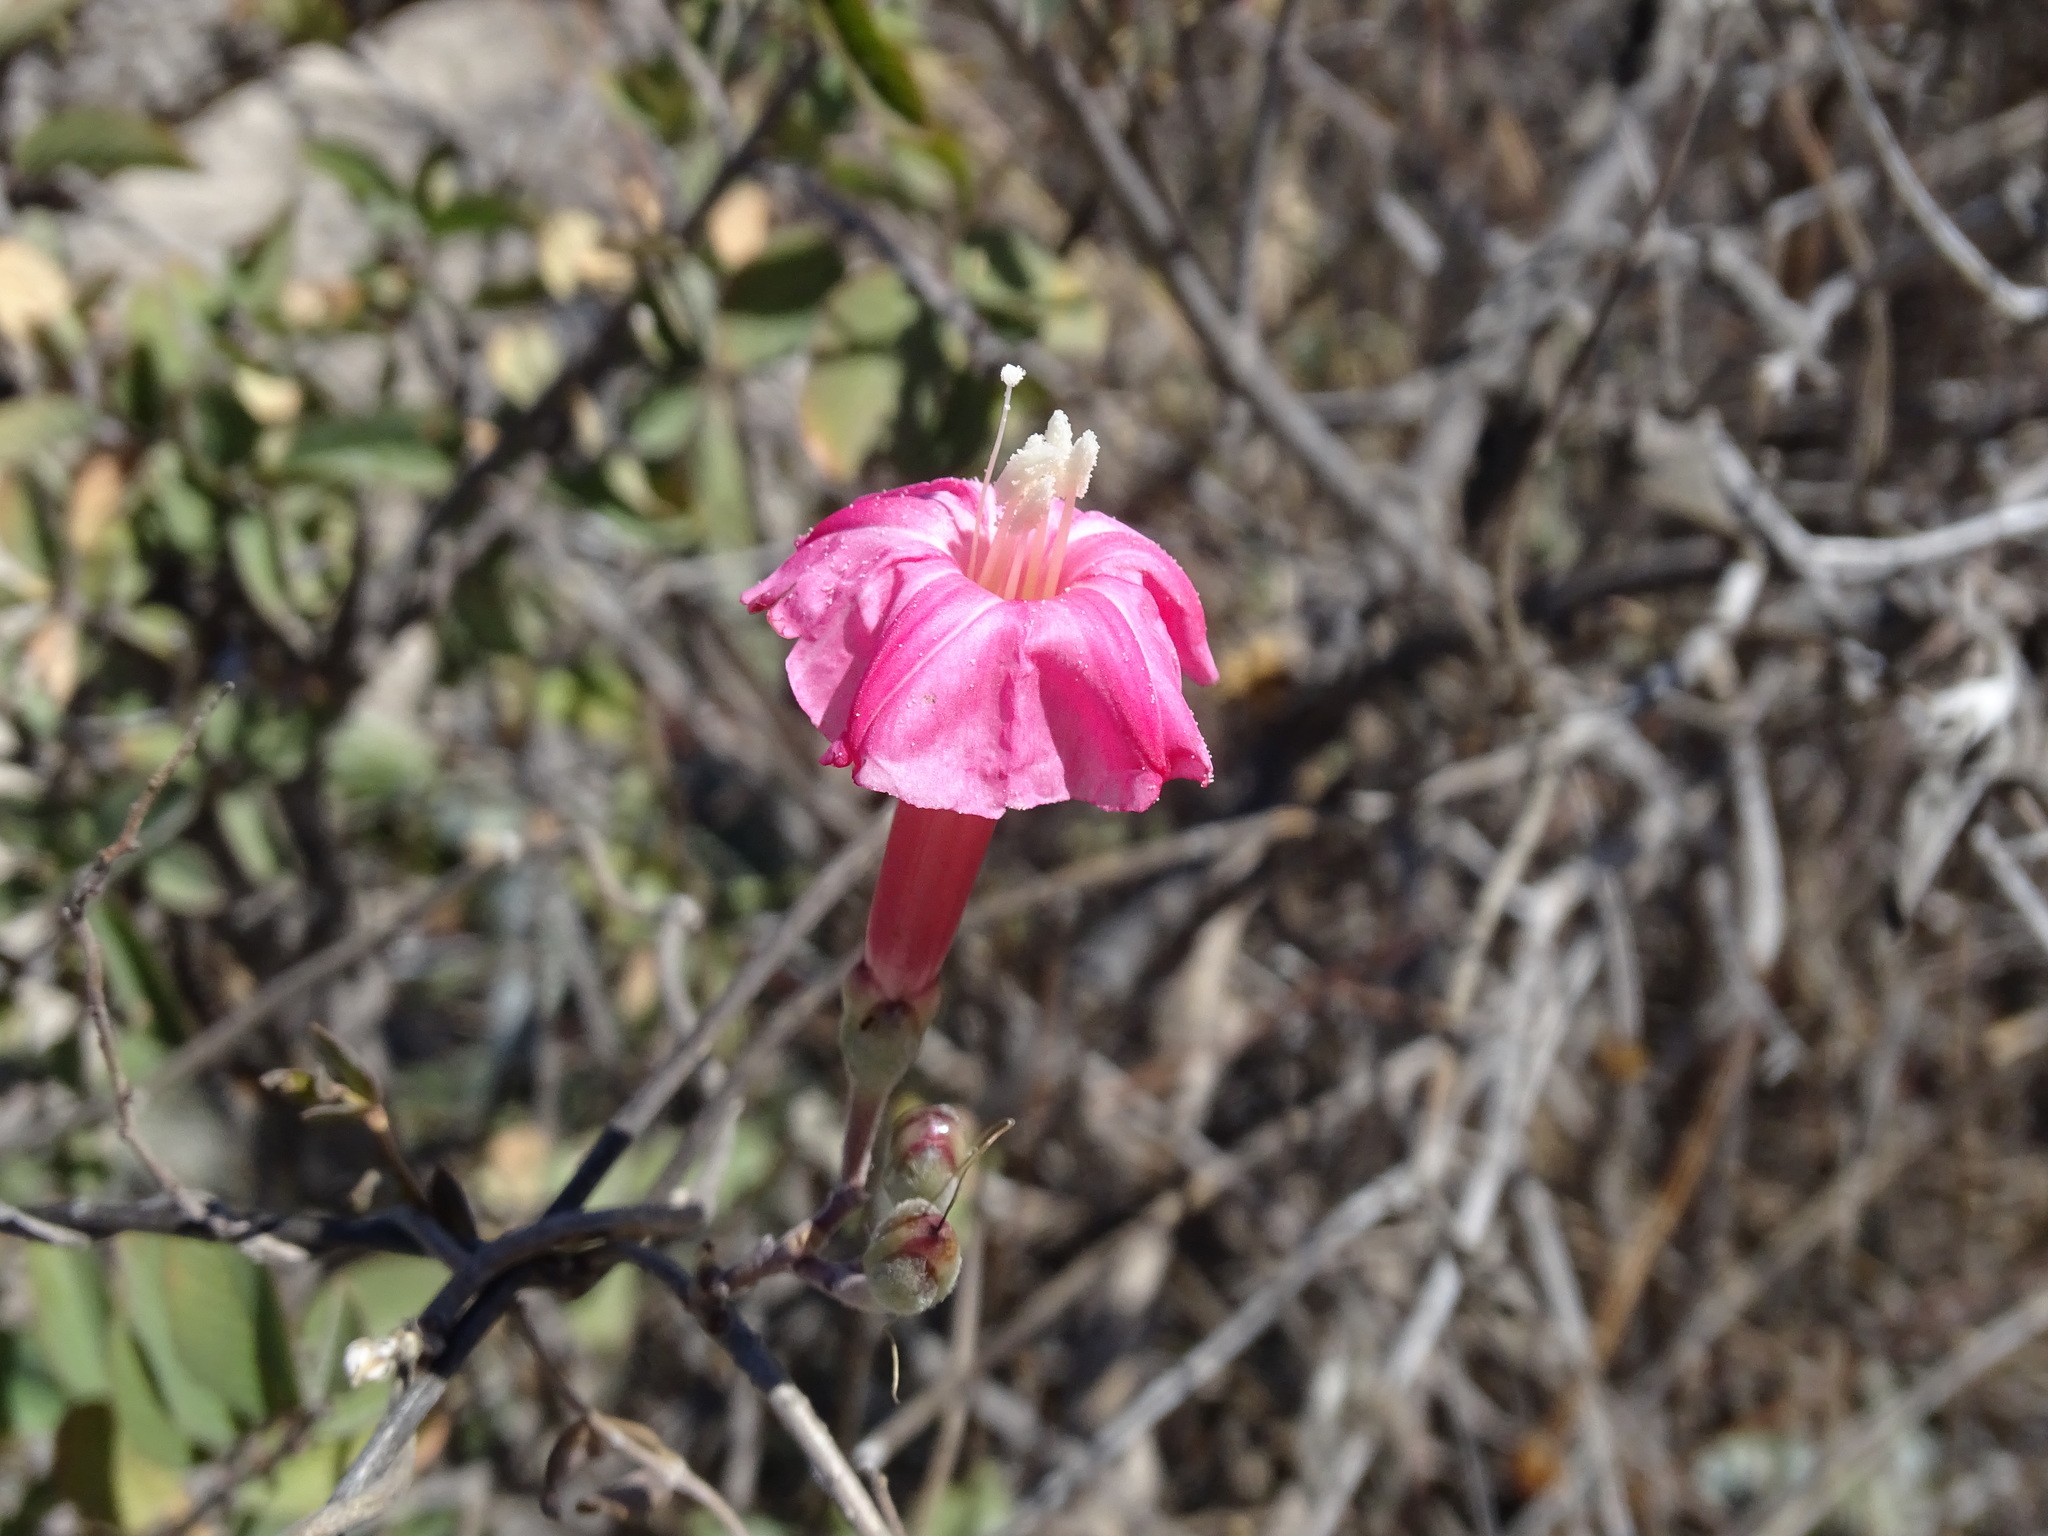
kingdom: Plantae
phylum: Tracheophyta
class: Magnoliopsida
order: Solanales
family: Convolvulaceae
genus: Ipomoea
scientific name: Ipomoea conzattii
